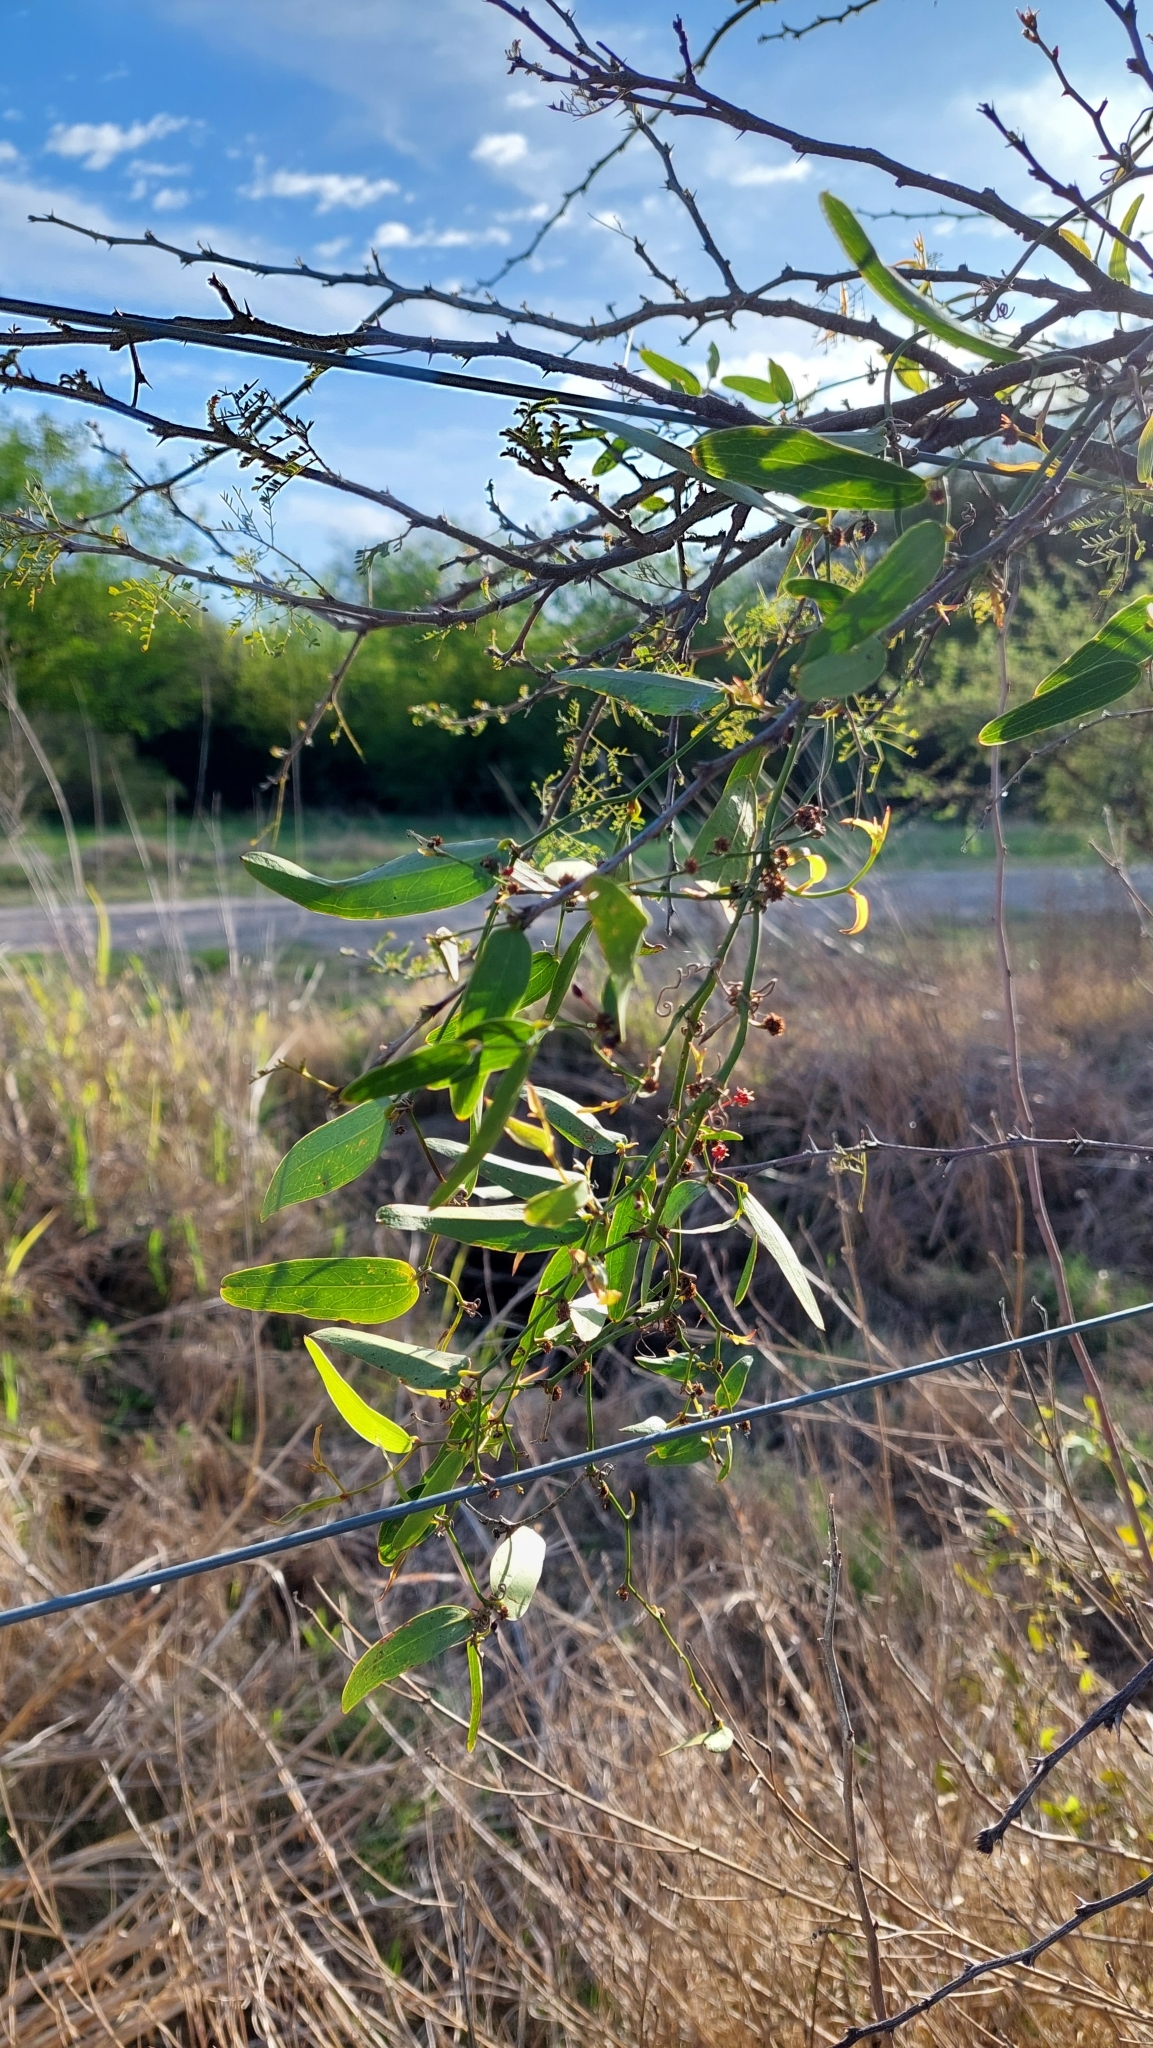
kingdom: Plantae
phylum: Tracheophyta
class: Liliopsida
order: Liliales
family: Smilacaceae
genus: Smilax
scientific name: Smilax campestris
